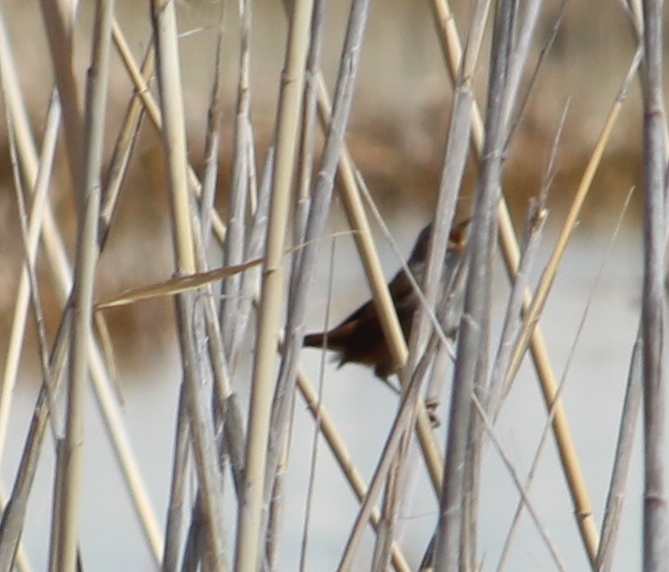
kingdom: Animalia
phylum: Chordata
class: Aves
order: Passeriformes
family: Troglodytidae
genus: Cistothorus
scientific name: Cistothorus palustris
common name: Marsh wren
